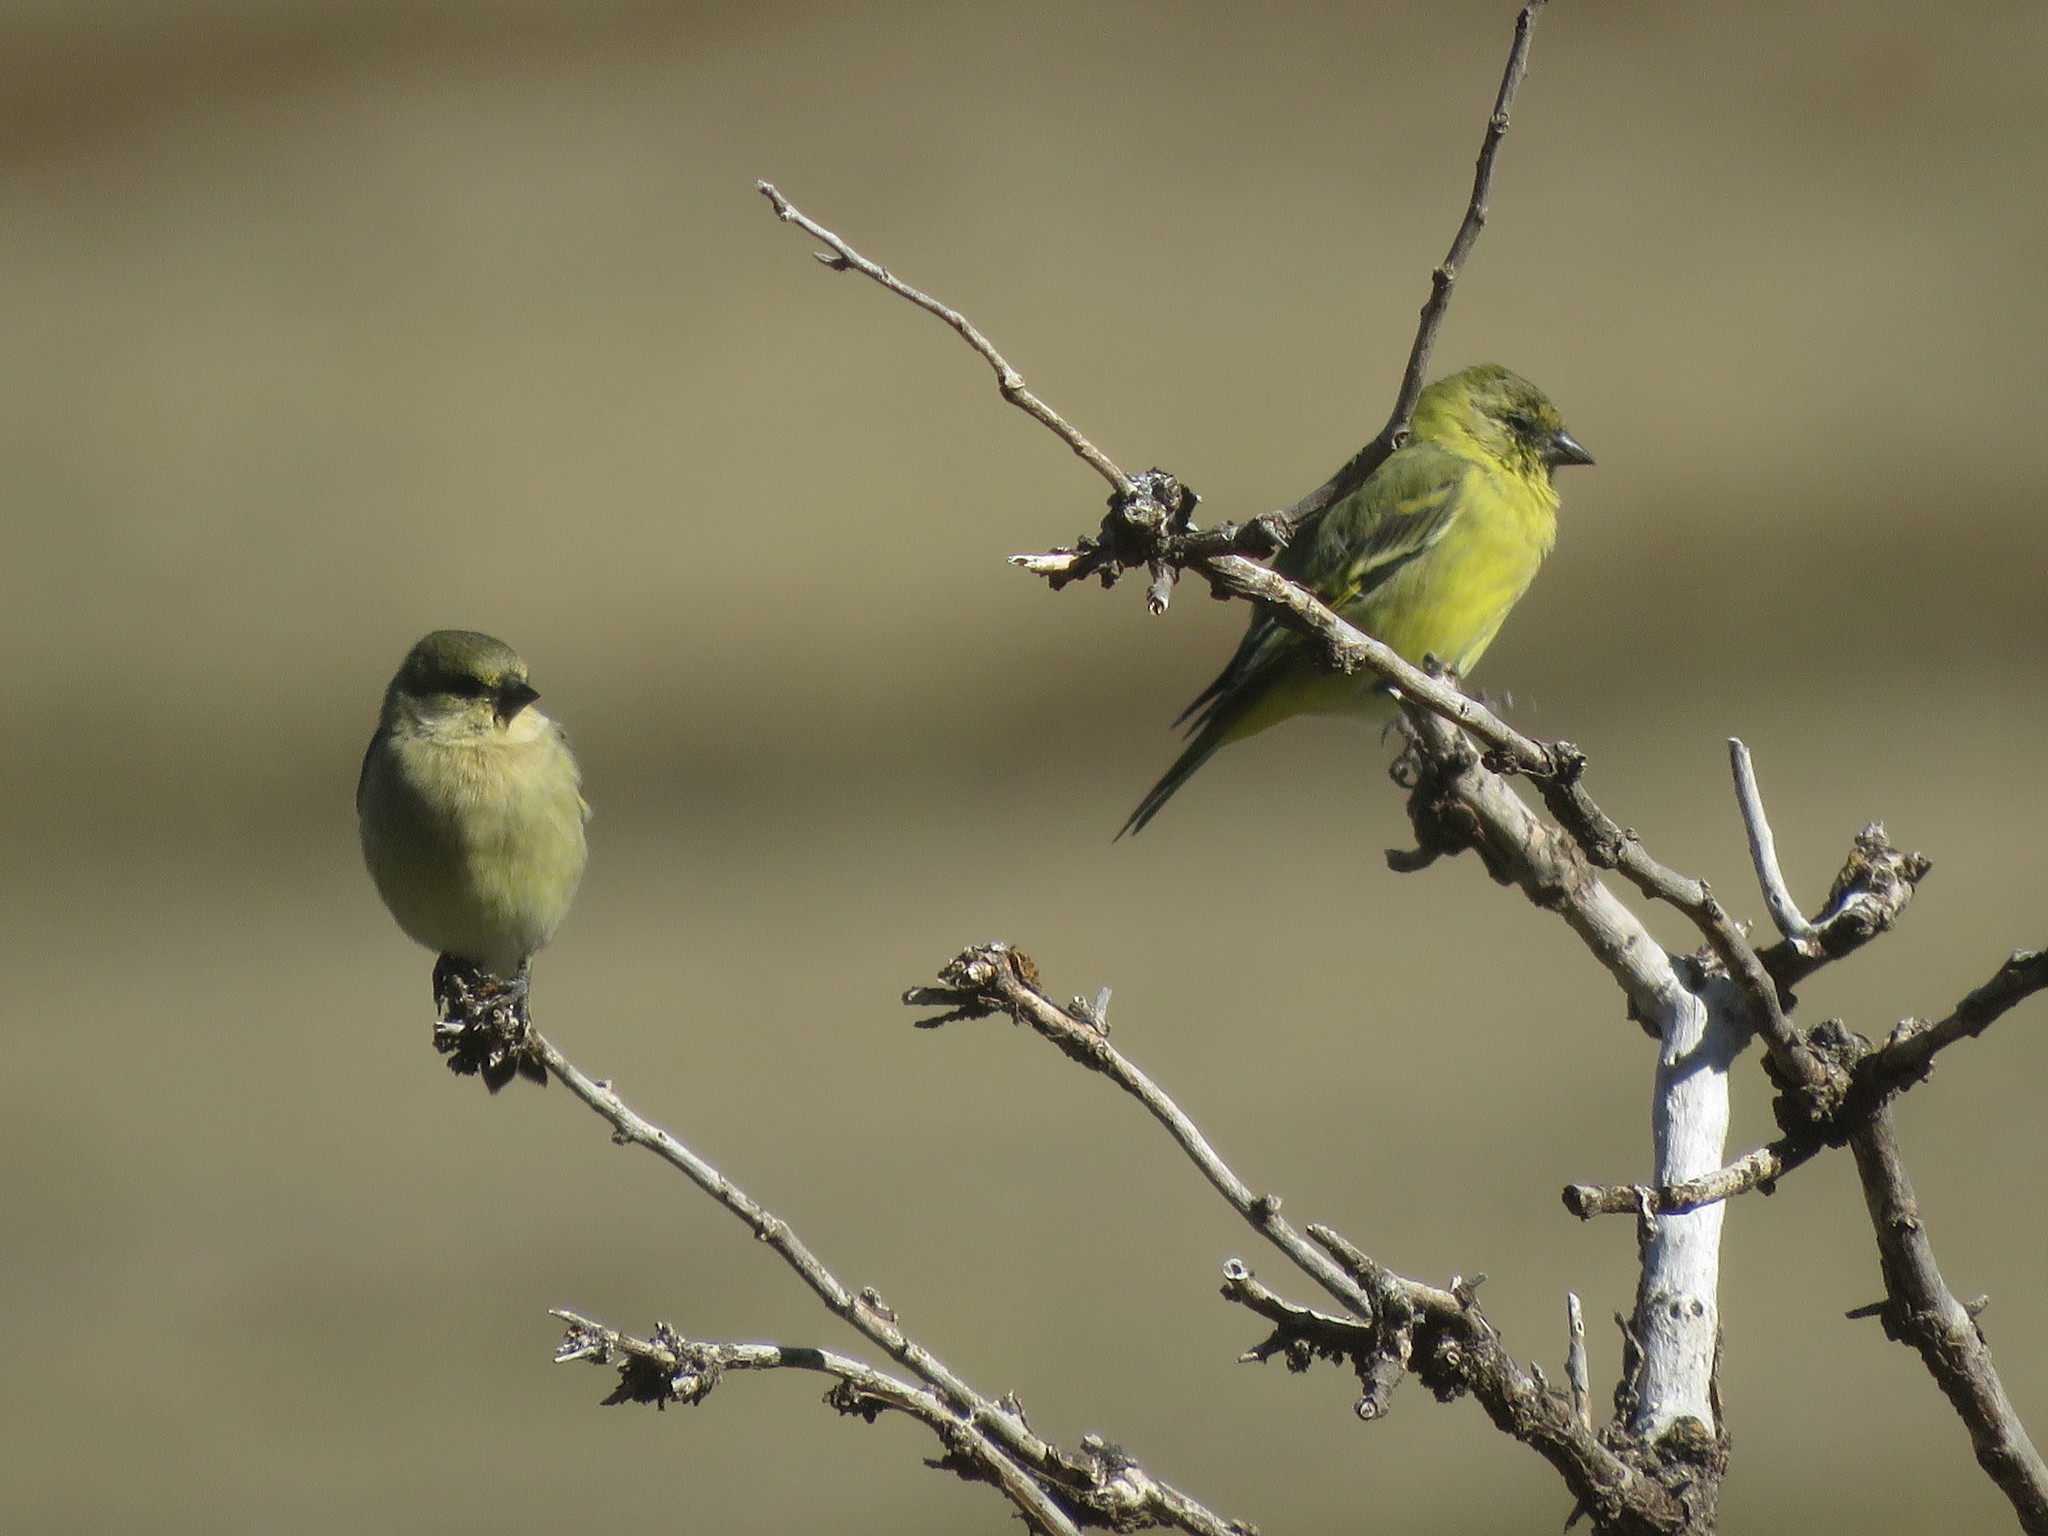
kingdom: Animalia
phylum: Chordata
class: Aves
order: Passeriformes
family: Fringillidae
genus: Spinus
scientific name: Spinus magellanicus
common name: Hooded siskin
